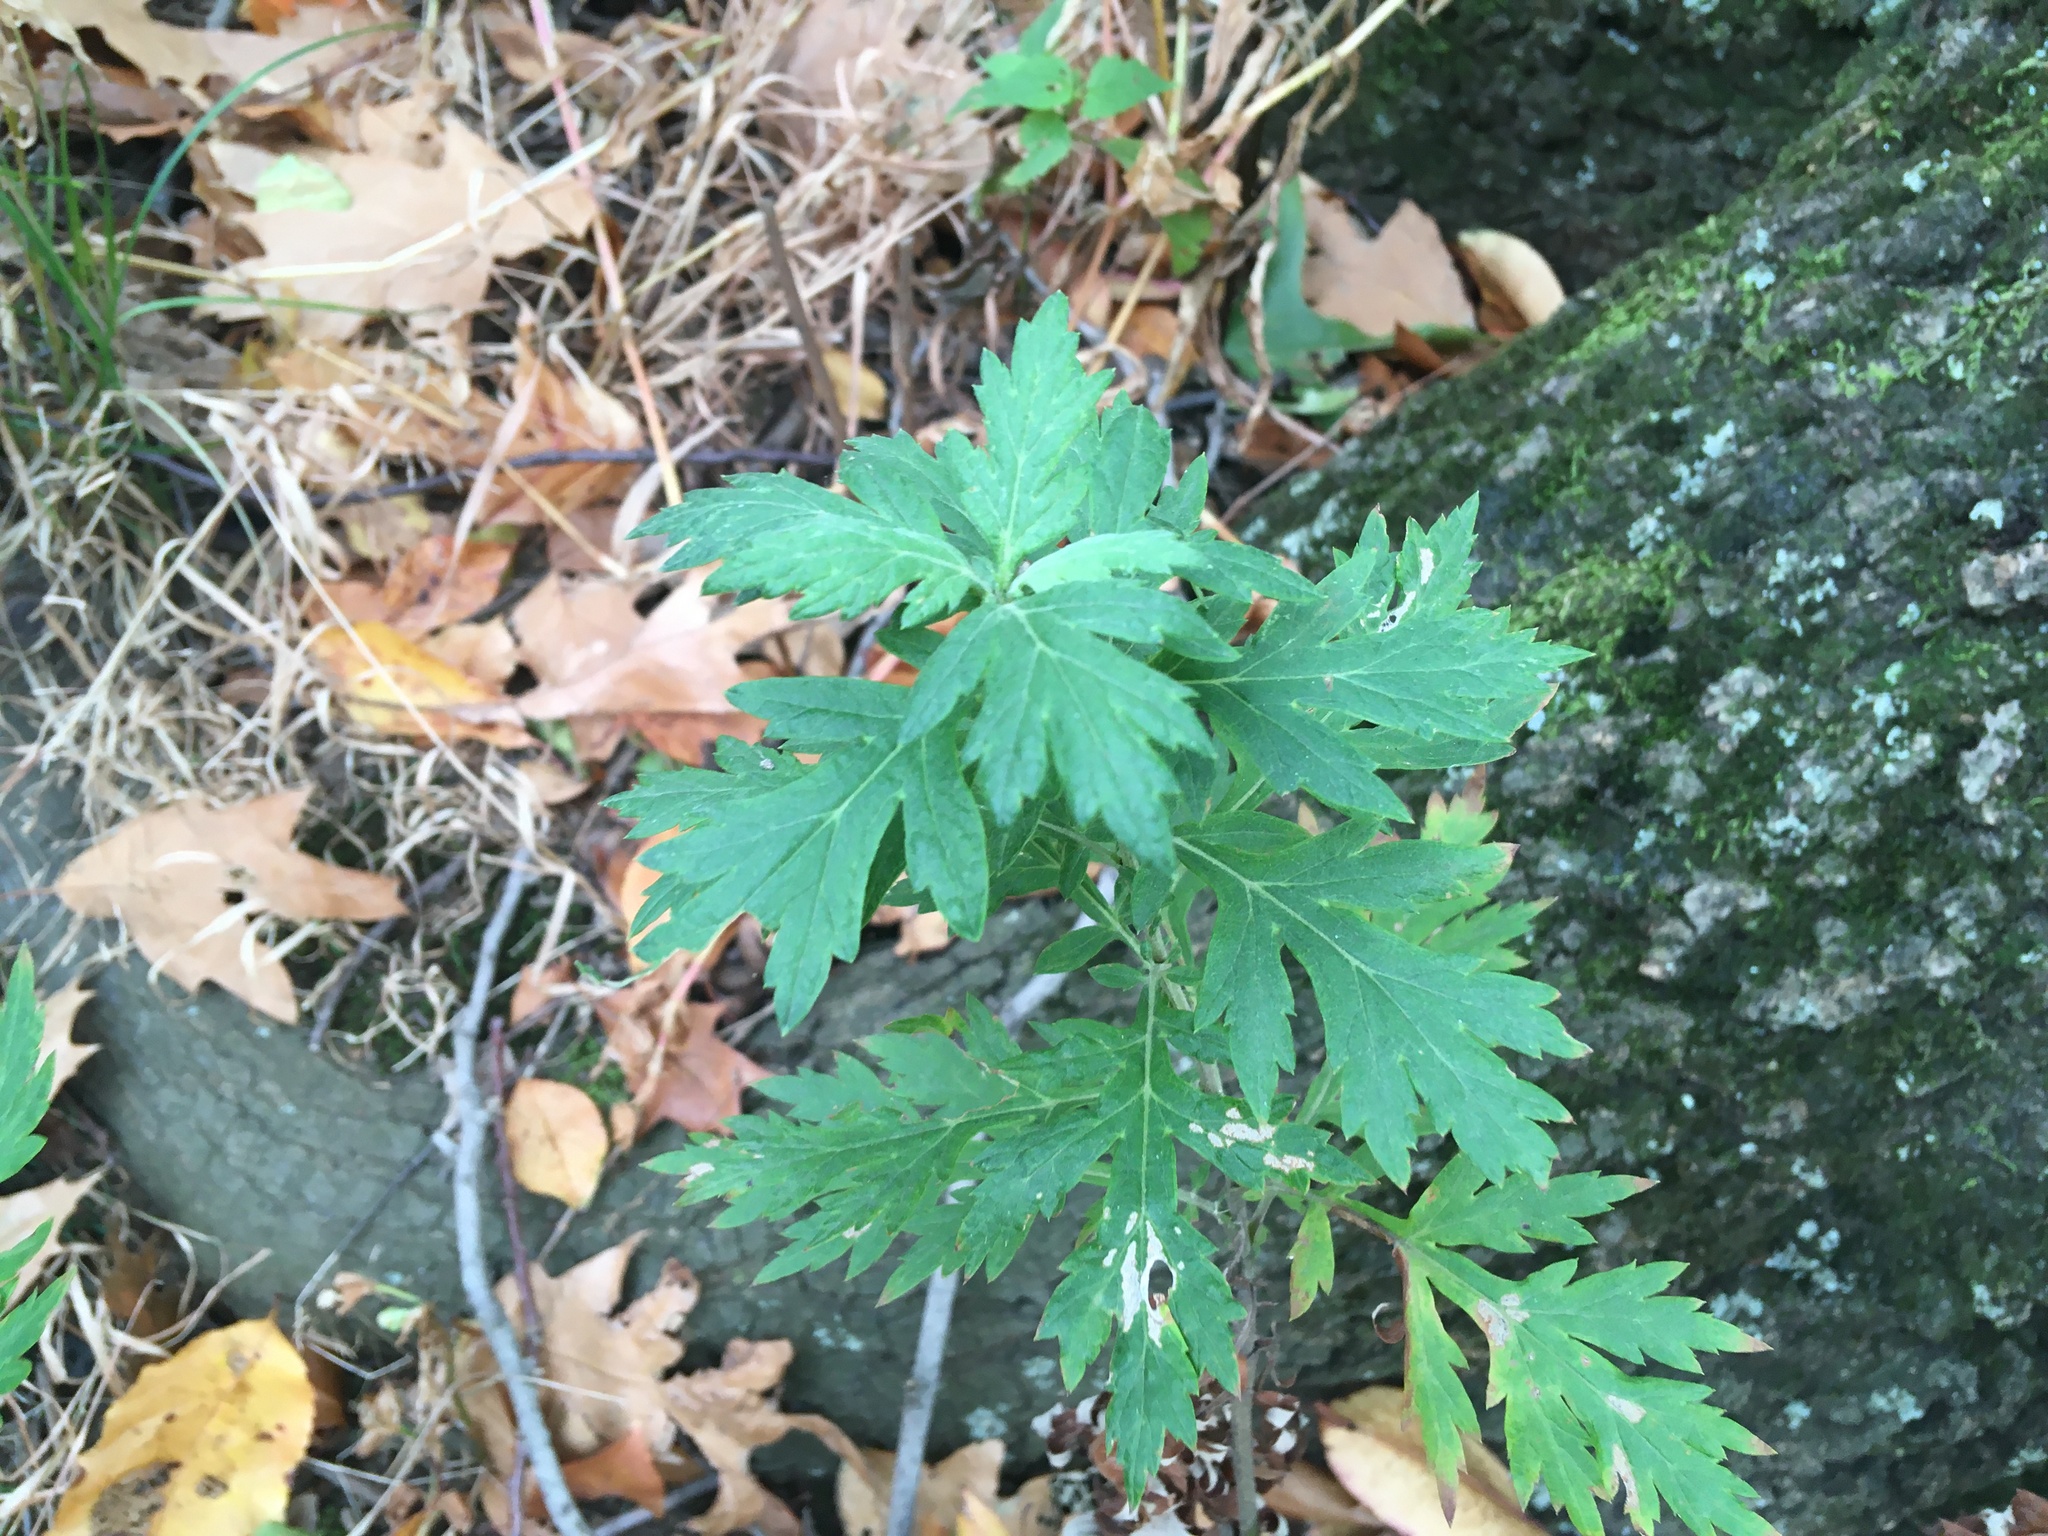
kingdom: Plantae
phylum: Tracheophyta
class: Magnoliopsida
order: Asterales
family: Asteraceae
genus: Artemisia
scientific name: Artemisia vulgaris
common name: Mugwort
